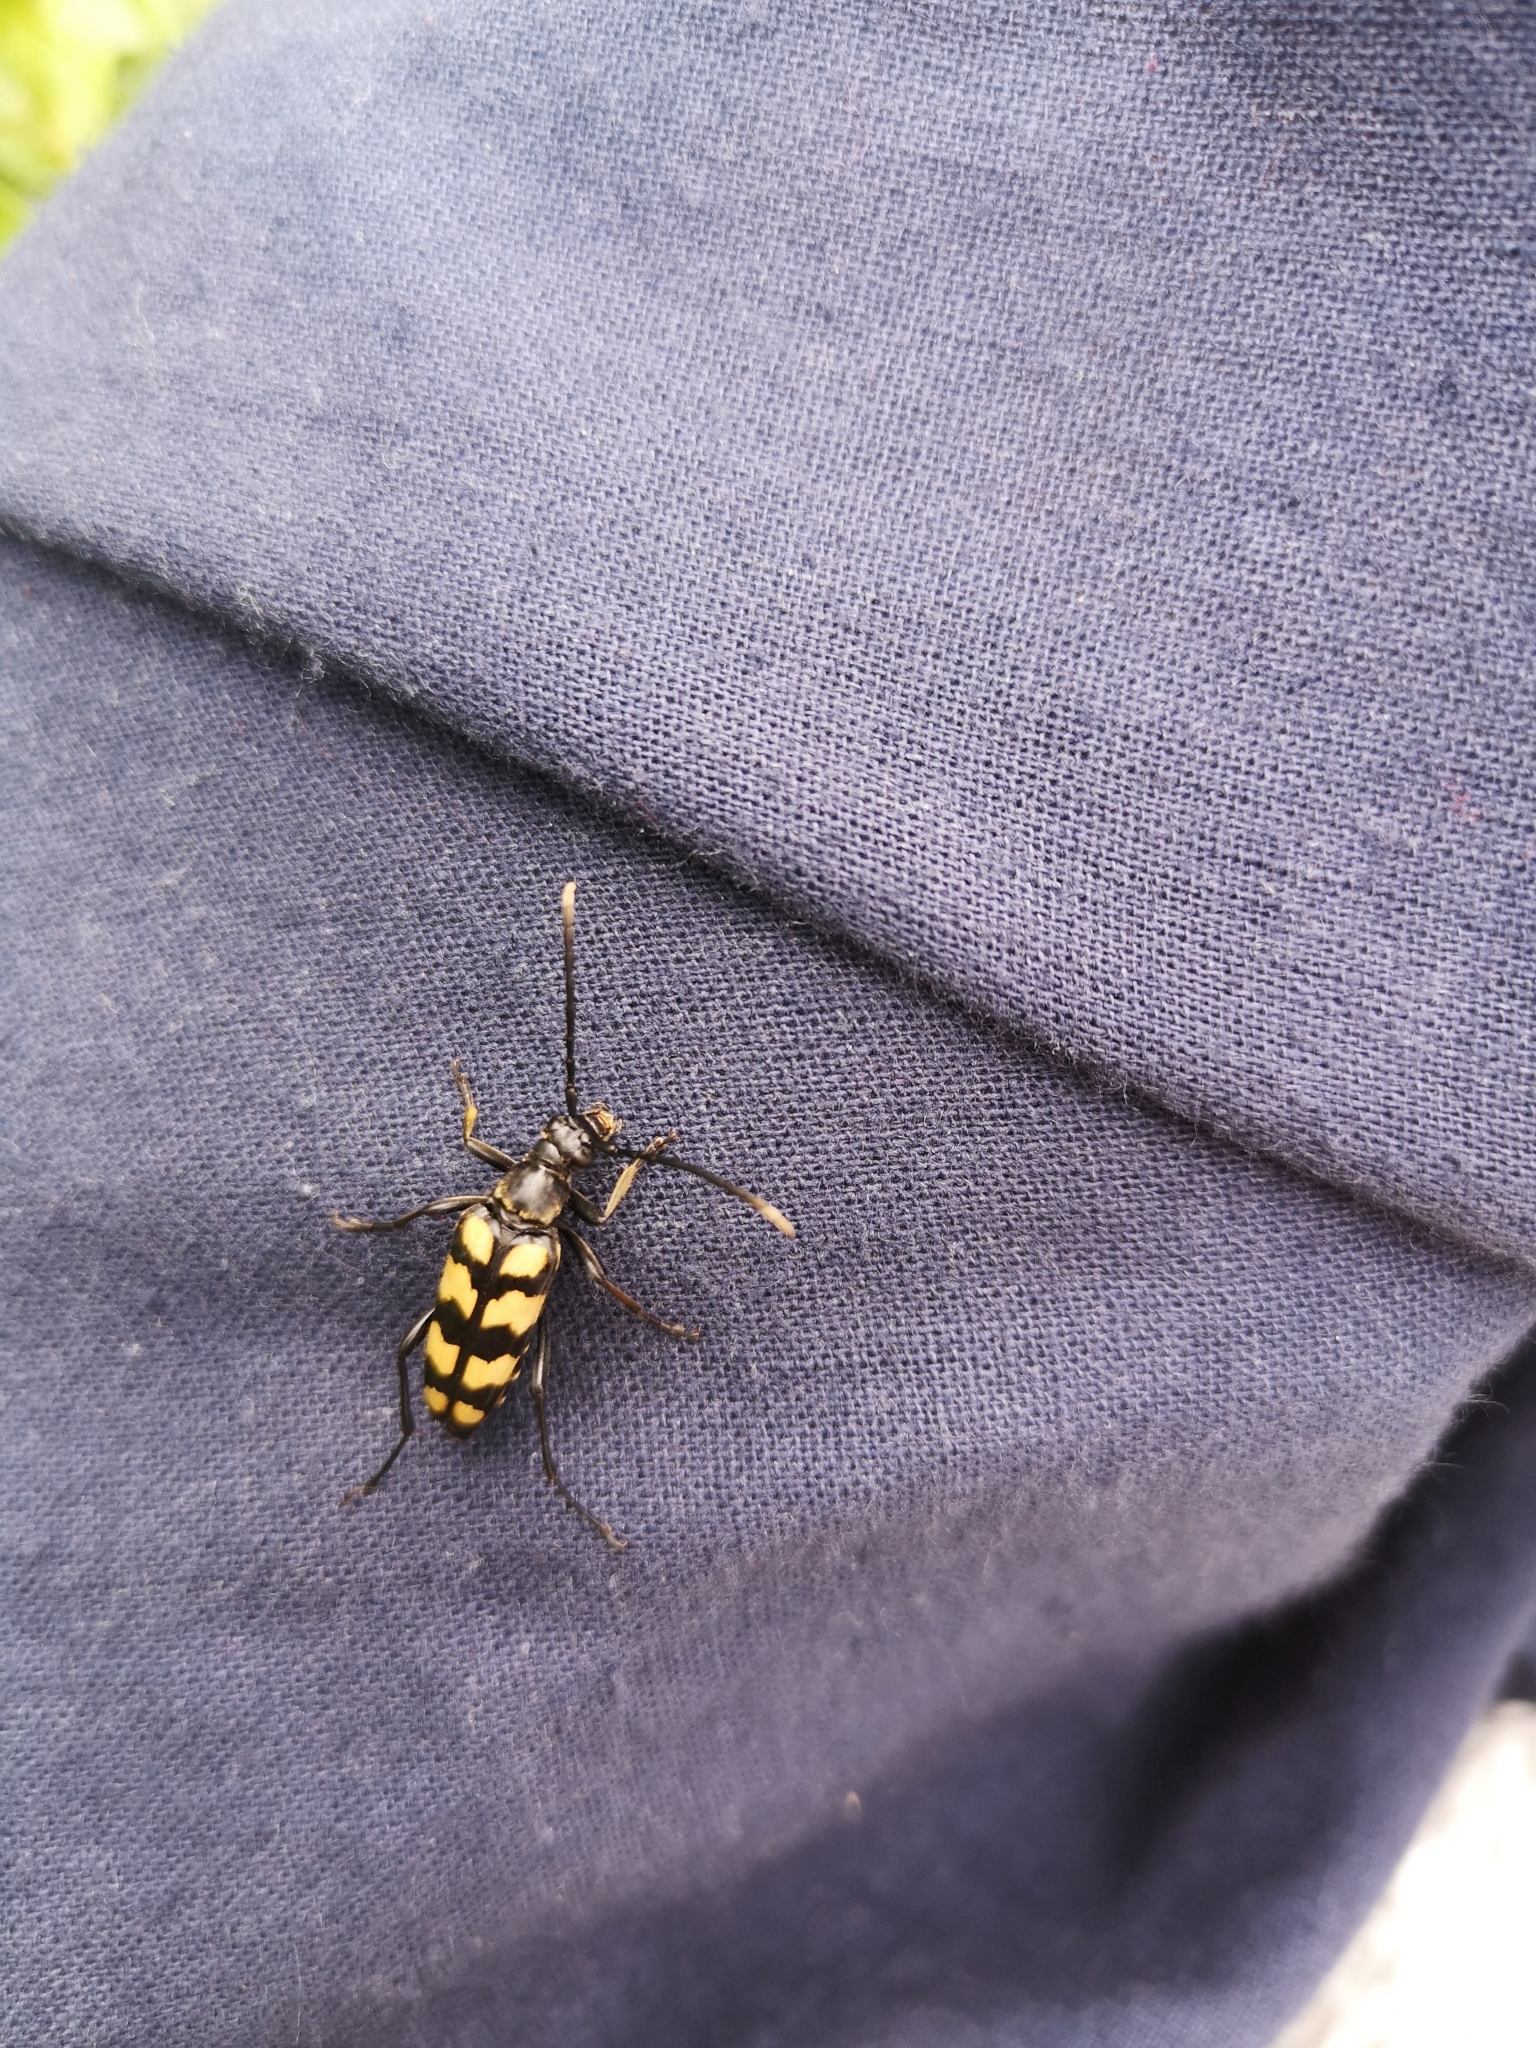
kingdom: Animalia
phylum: Arthropoda
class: Insecta
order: Coleoptera
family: Cerambycidae
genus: Leptura
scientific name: Leptura quadrifasciata
